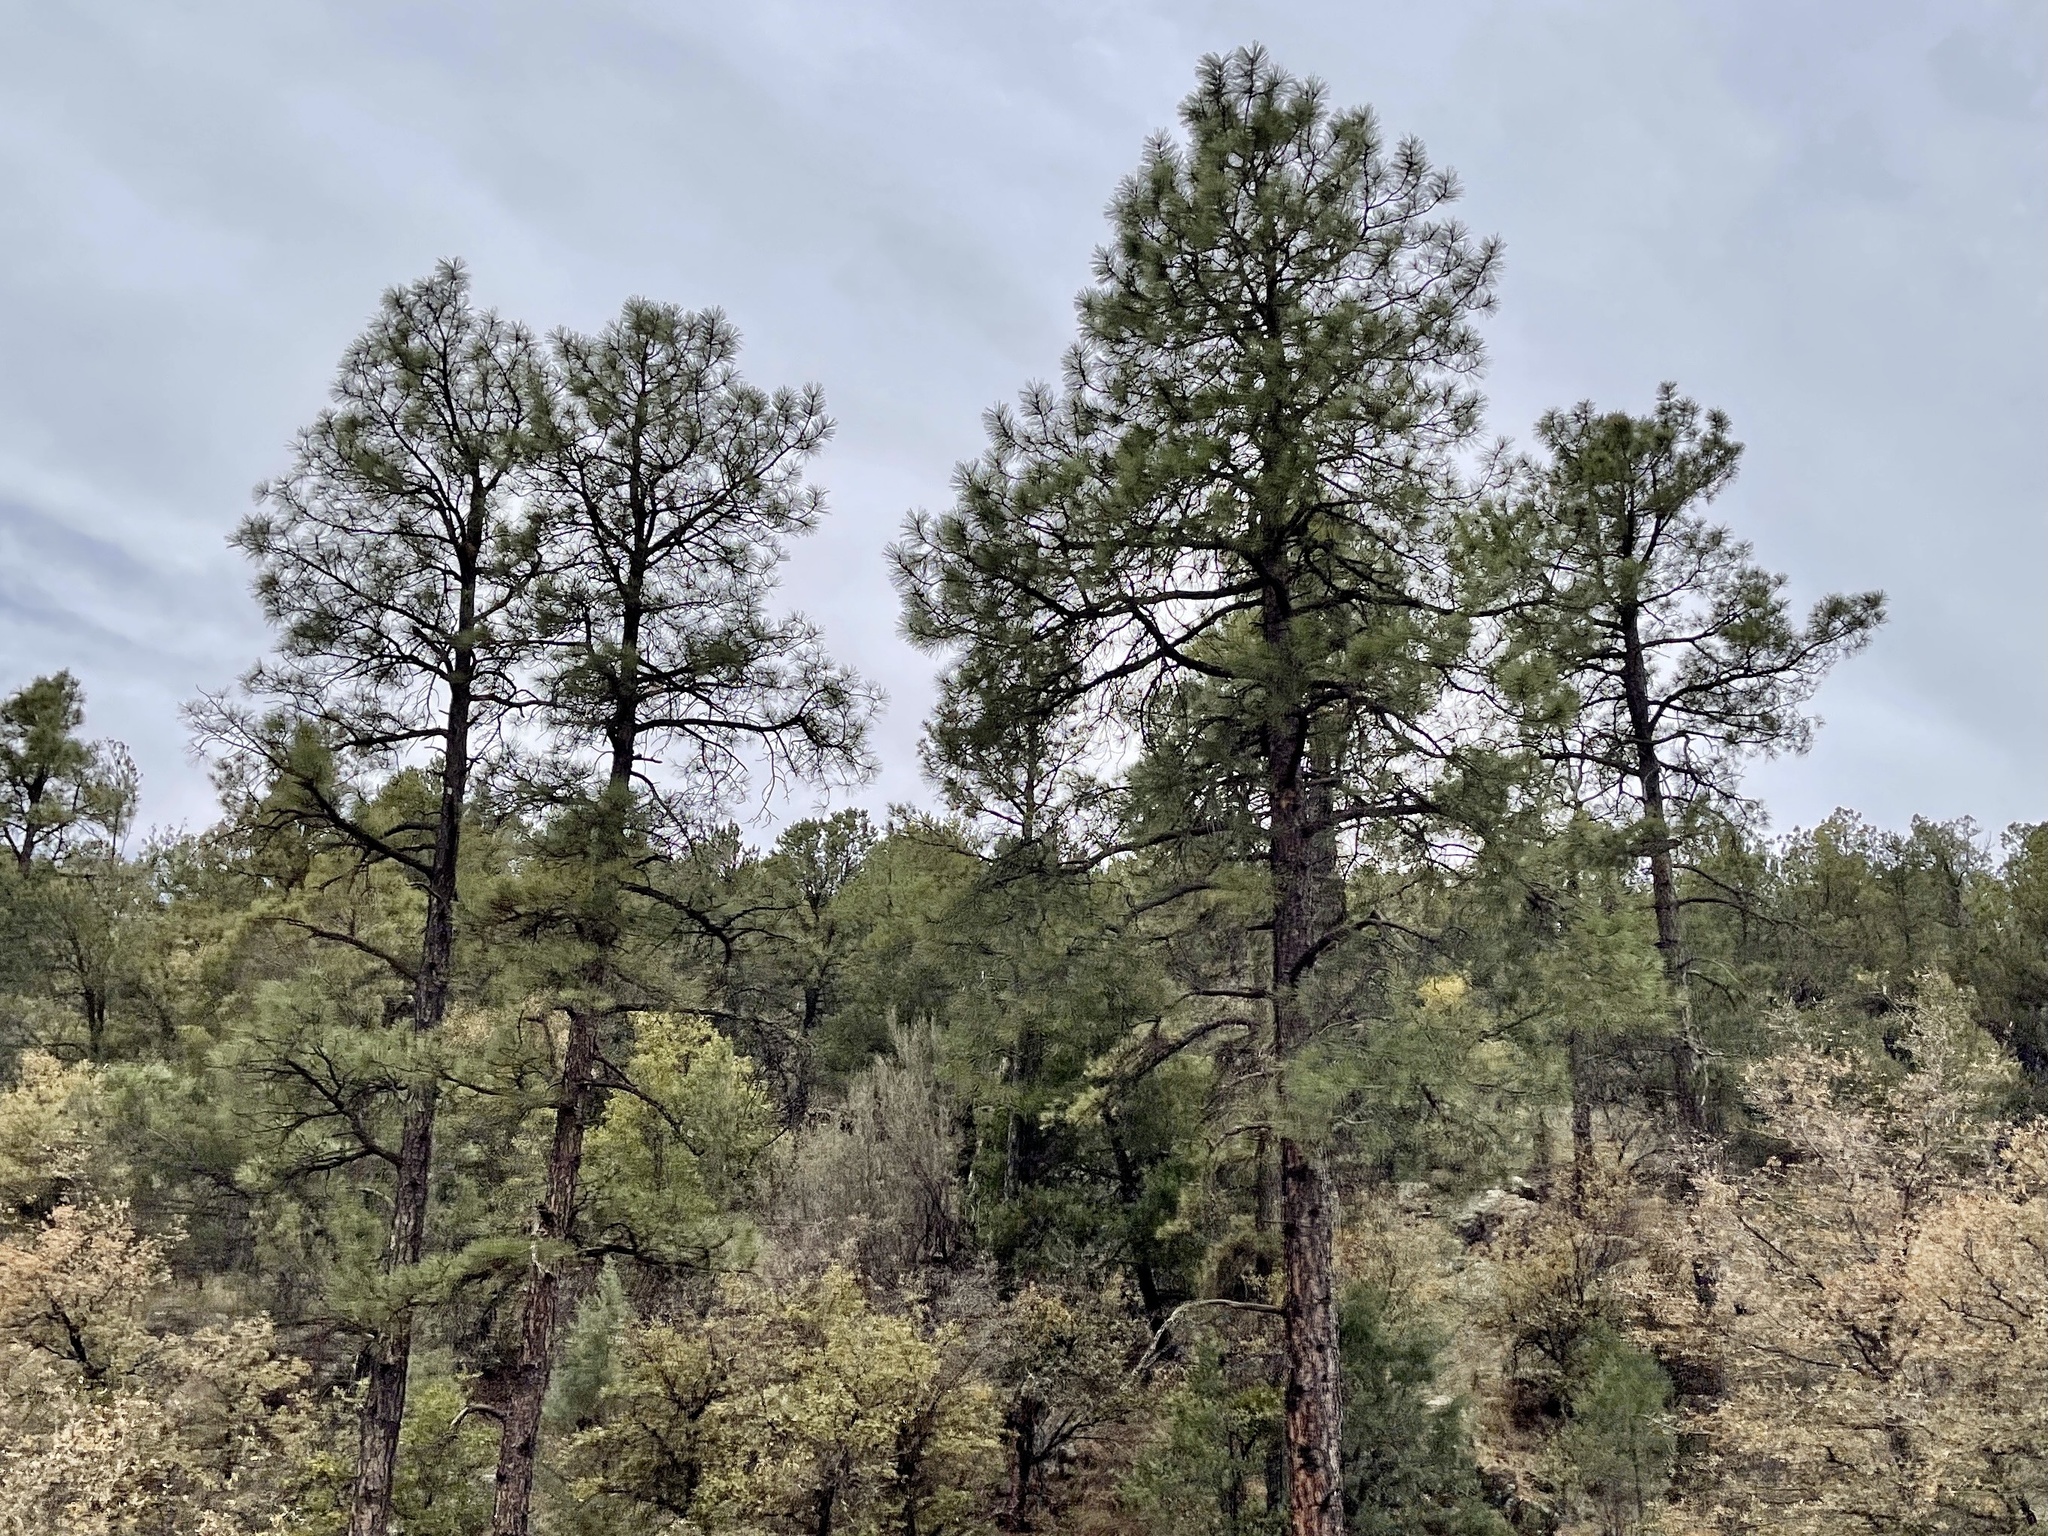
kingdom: Plantae
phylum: Tracheophyta
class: Pinopsida
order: Pinales
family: Pinaceae
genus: Pinus
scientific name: Pinus ponderosa
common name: Western yellow-pine
